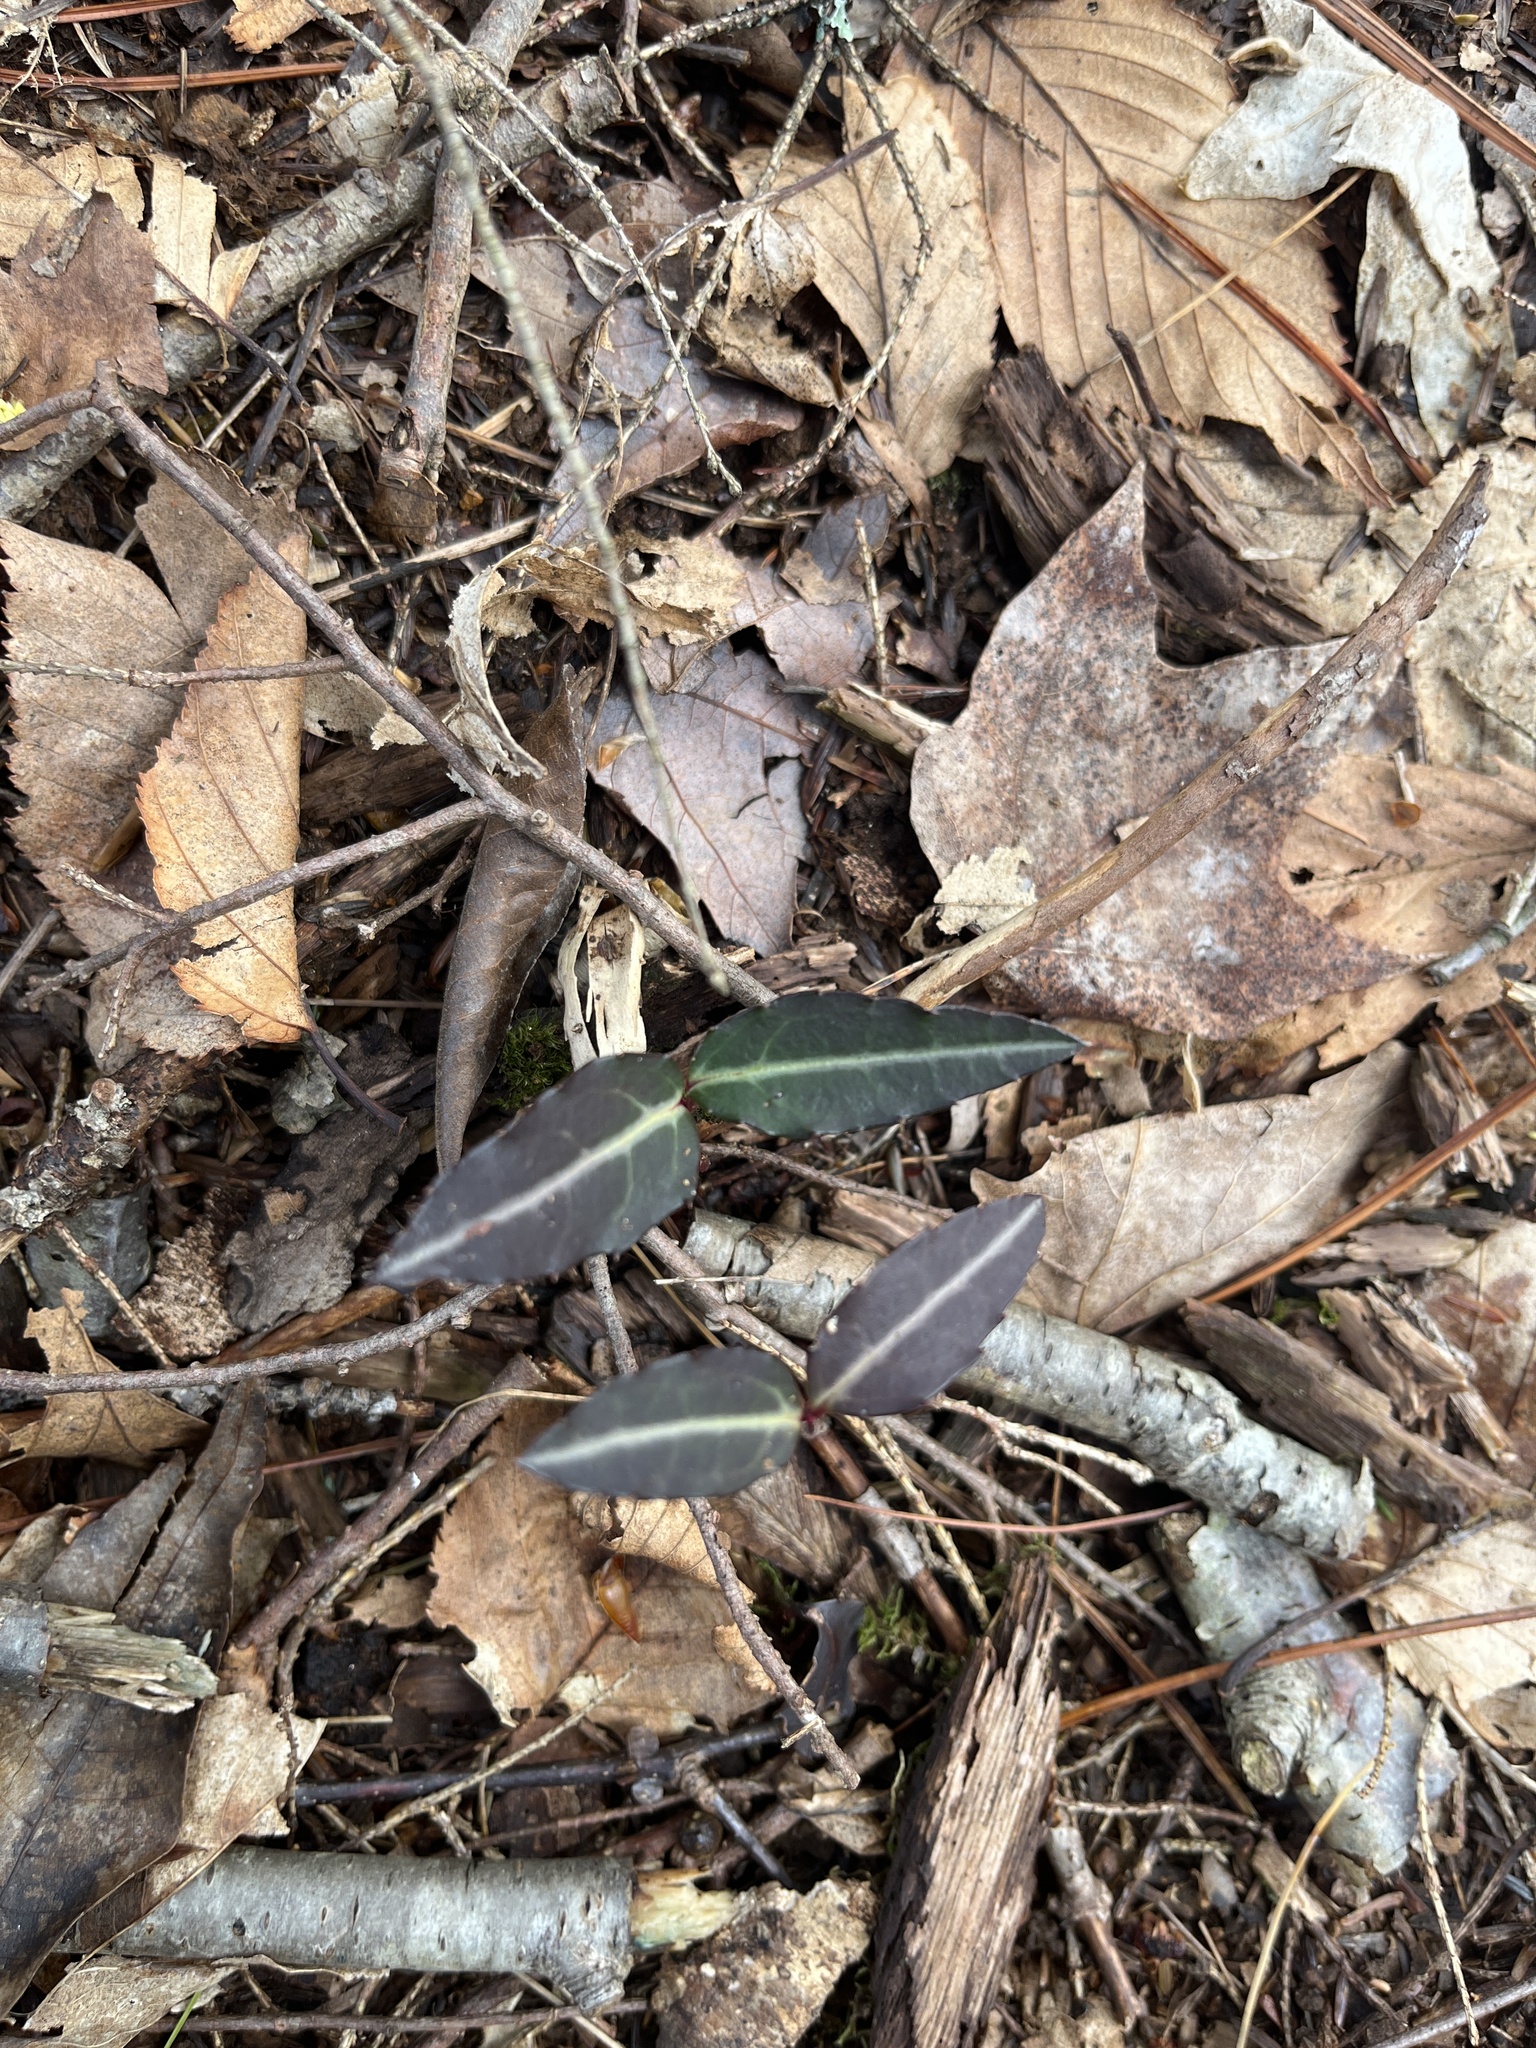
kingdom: Plantae
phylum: Tracheophyta
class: Magnoliopsida
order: Ericales
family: Ericaceae
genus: Chimaphila
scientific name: Chimaphila maculata
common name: Spotted pipsissewa
